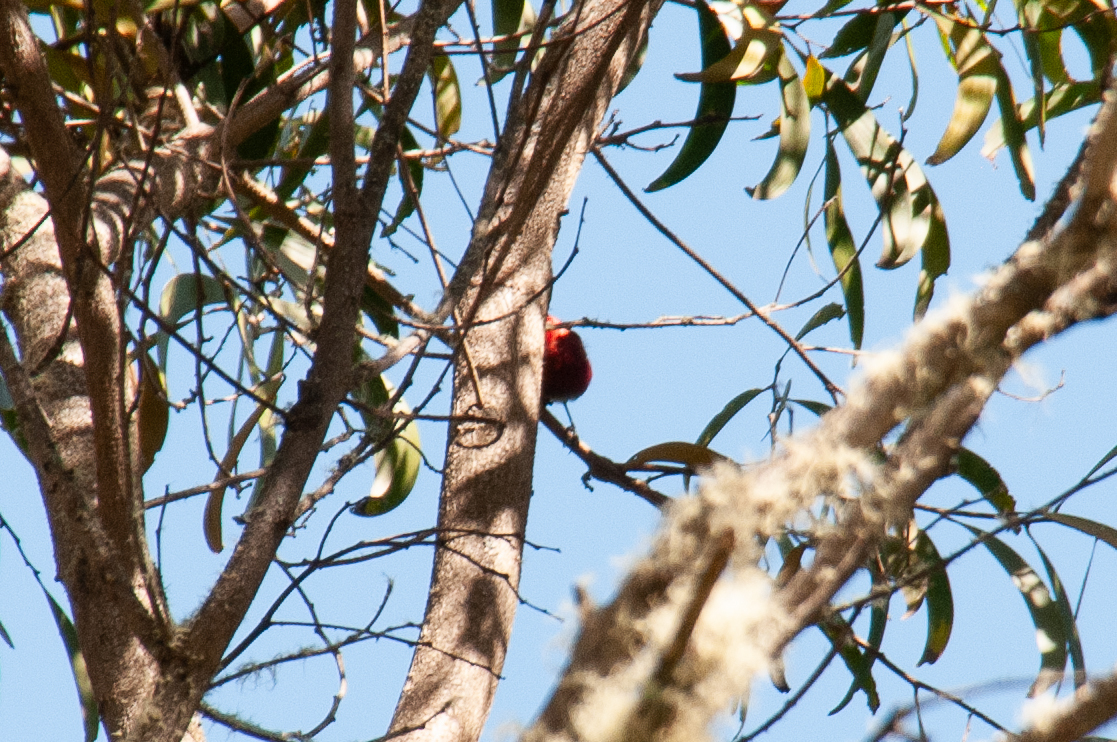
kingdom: Animalia
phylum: Chordata
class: Aves
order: Passeriformes
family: Fringillidae
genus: Himatione
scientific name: Himatione sanguinea
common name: Apapane
